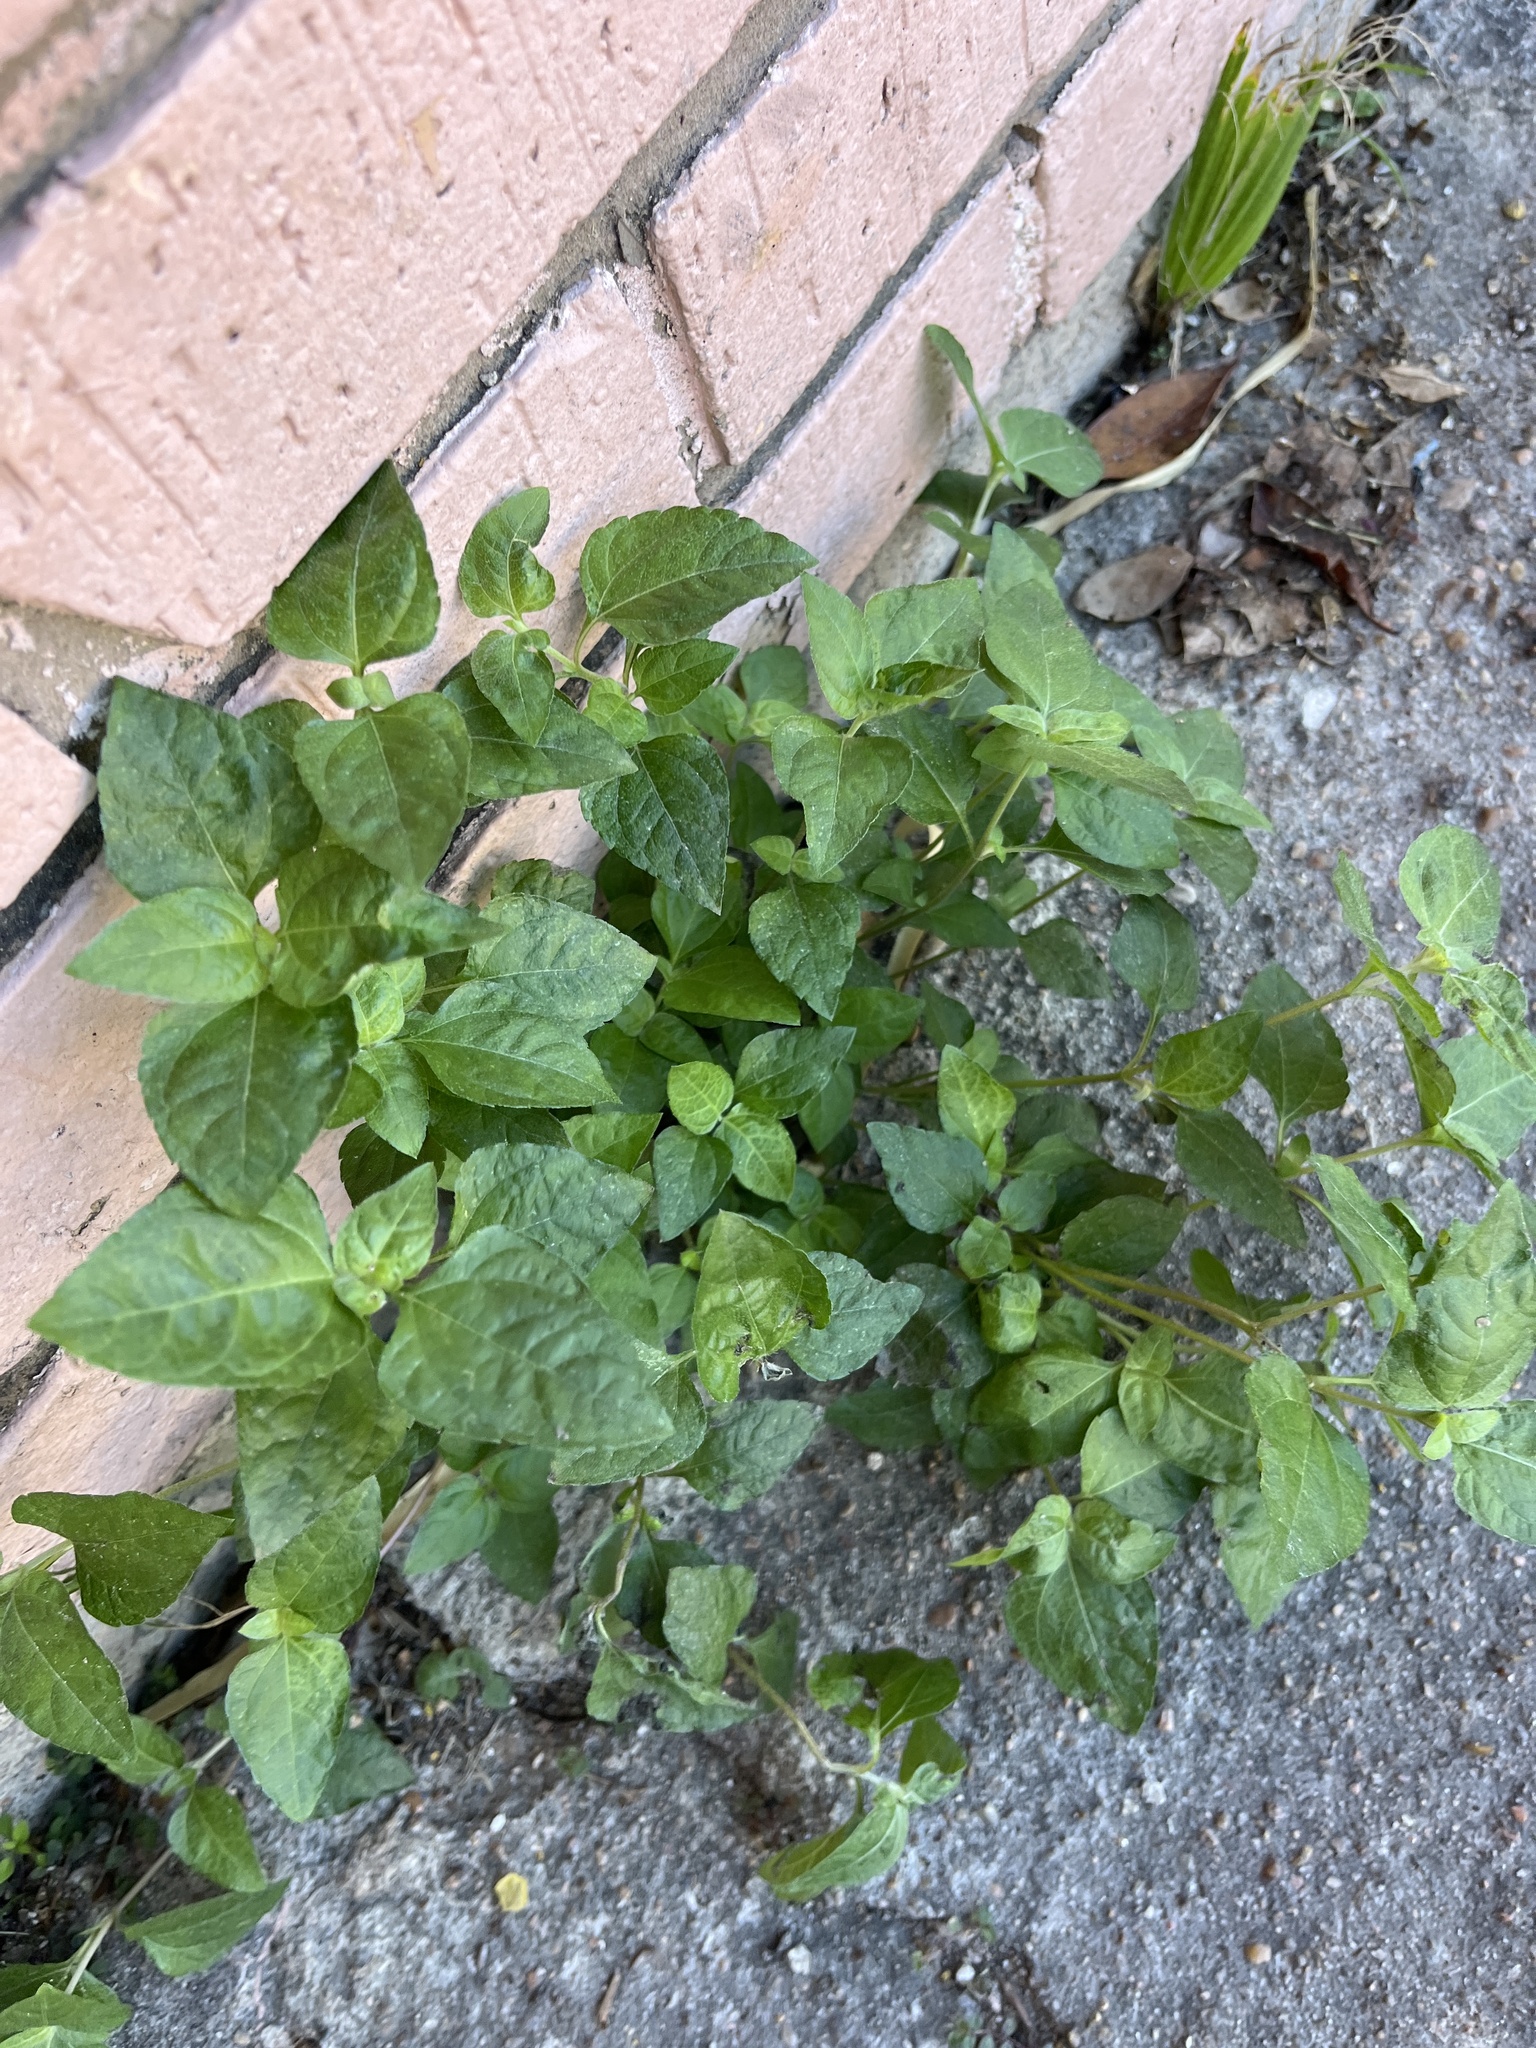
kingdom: Plantae
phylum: Tracheophyta
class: Magnoliopsida
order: Asterales
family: Asteraceae
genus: Calyptocarpus
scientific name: Calyptocarpus vialis
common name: Straggler daisy
